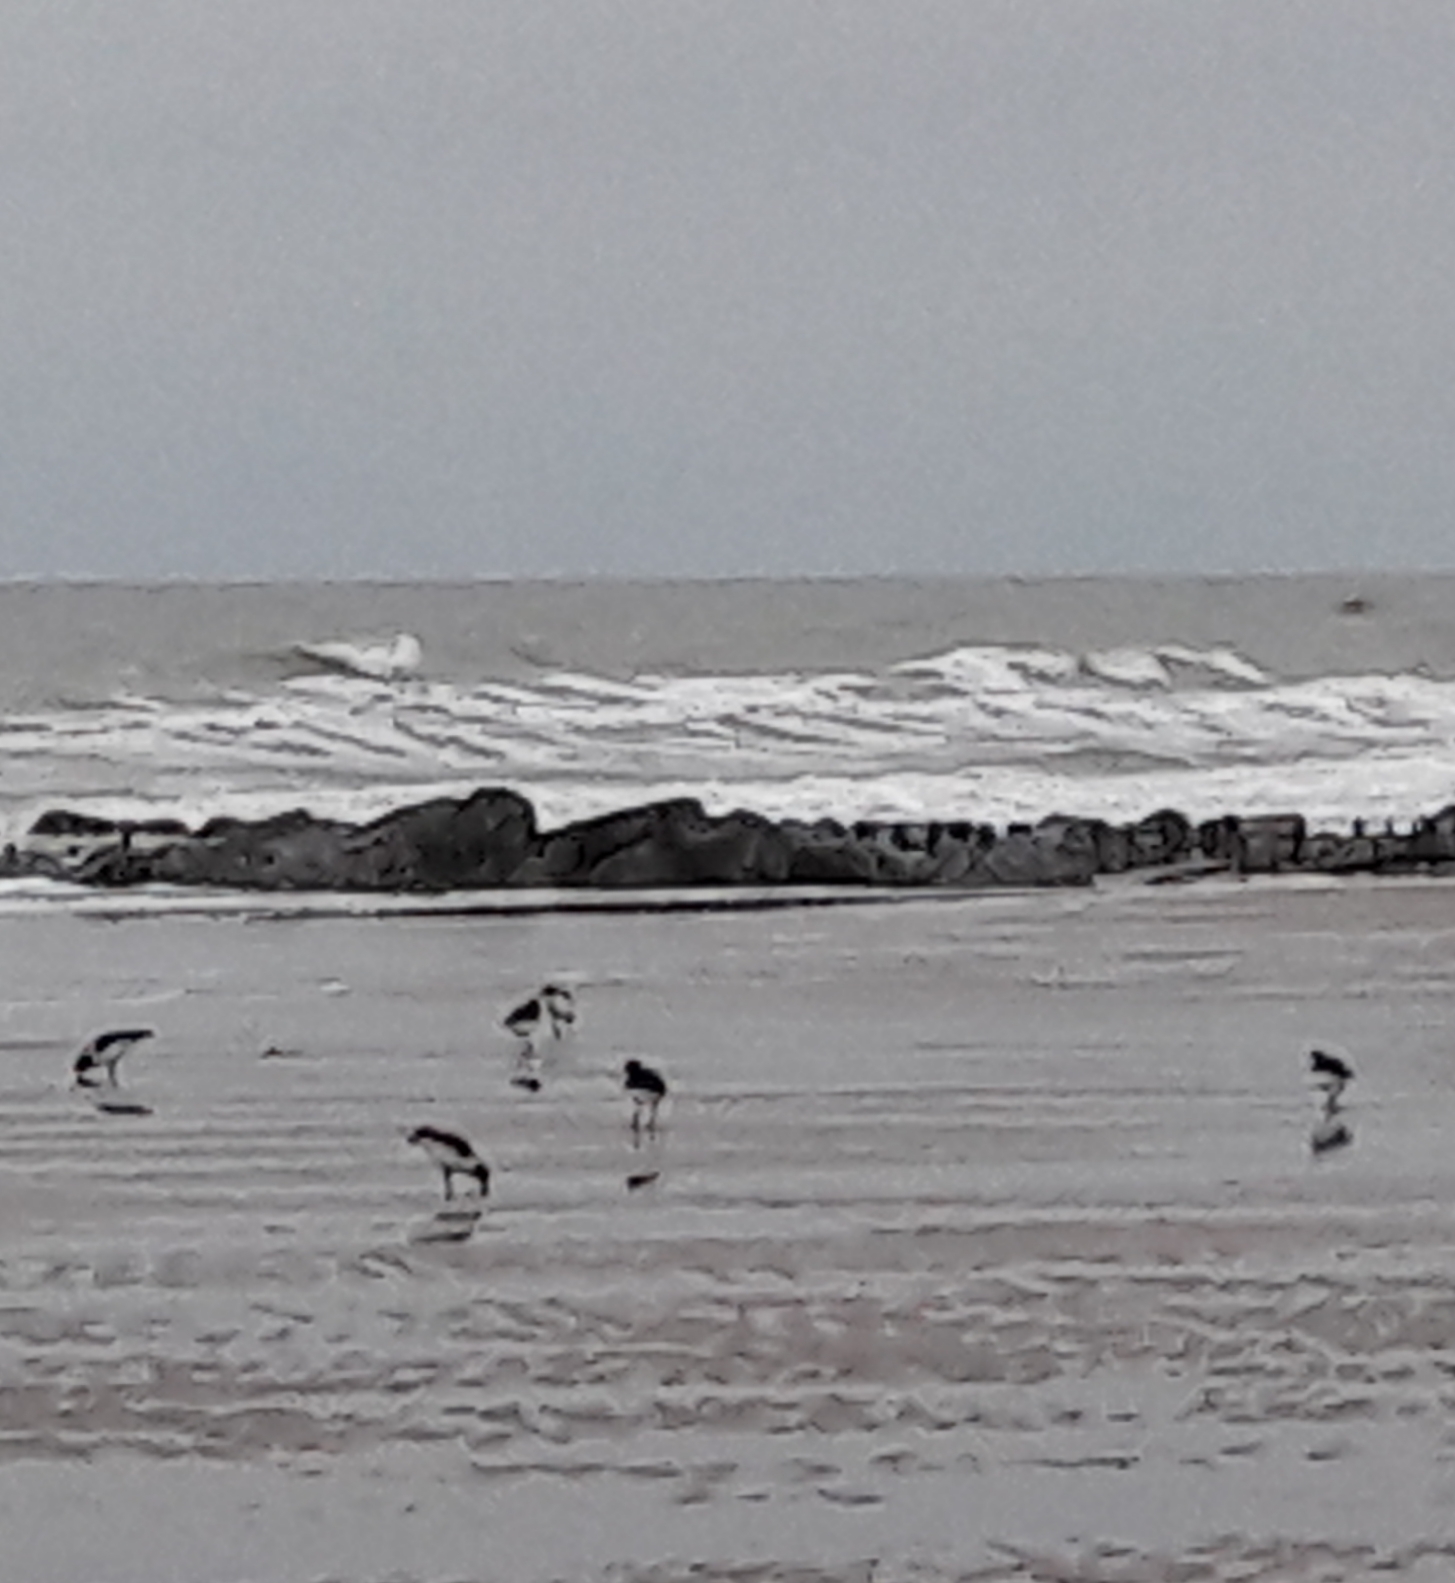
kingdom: Animalia
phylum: Chordata
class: Aves
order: Charadriiformes
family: Haematopodidae
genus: Haematopus
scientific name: Haematopus ostralegus
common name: Eurasian oystercatcher
